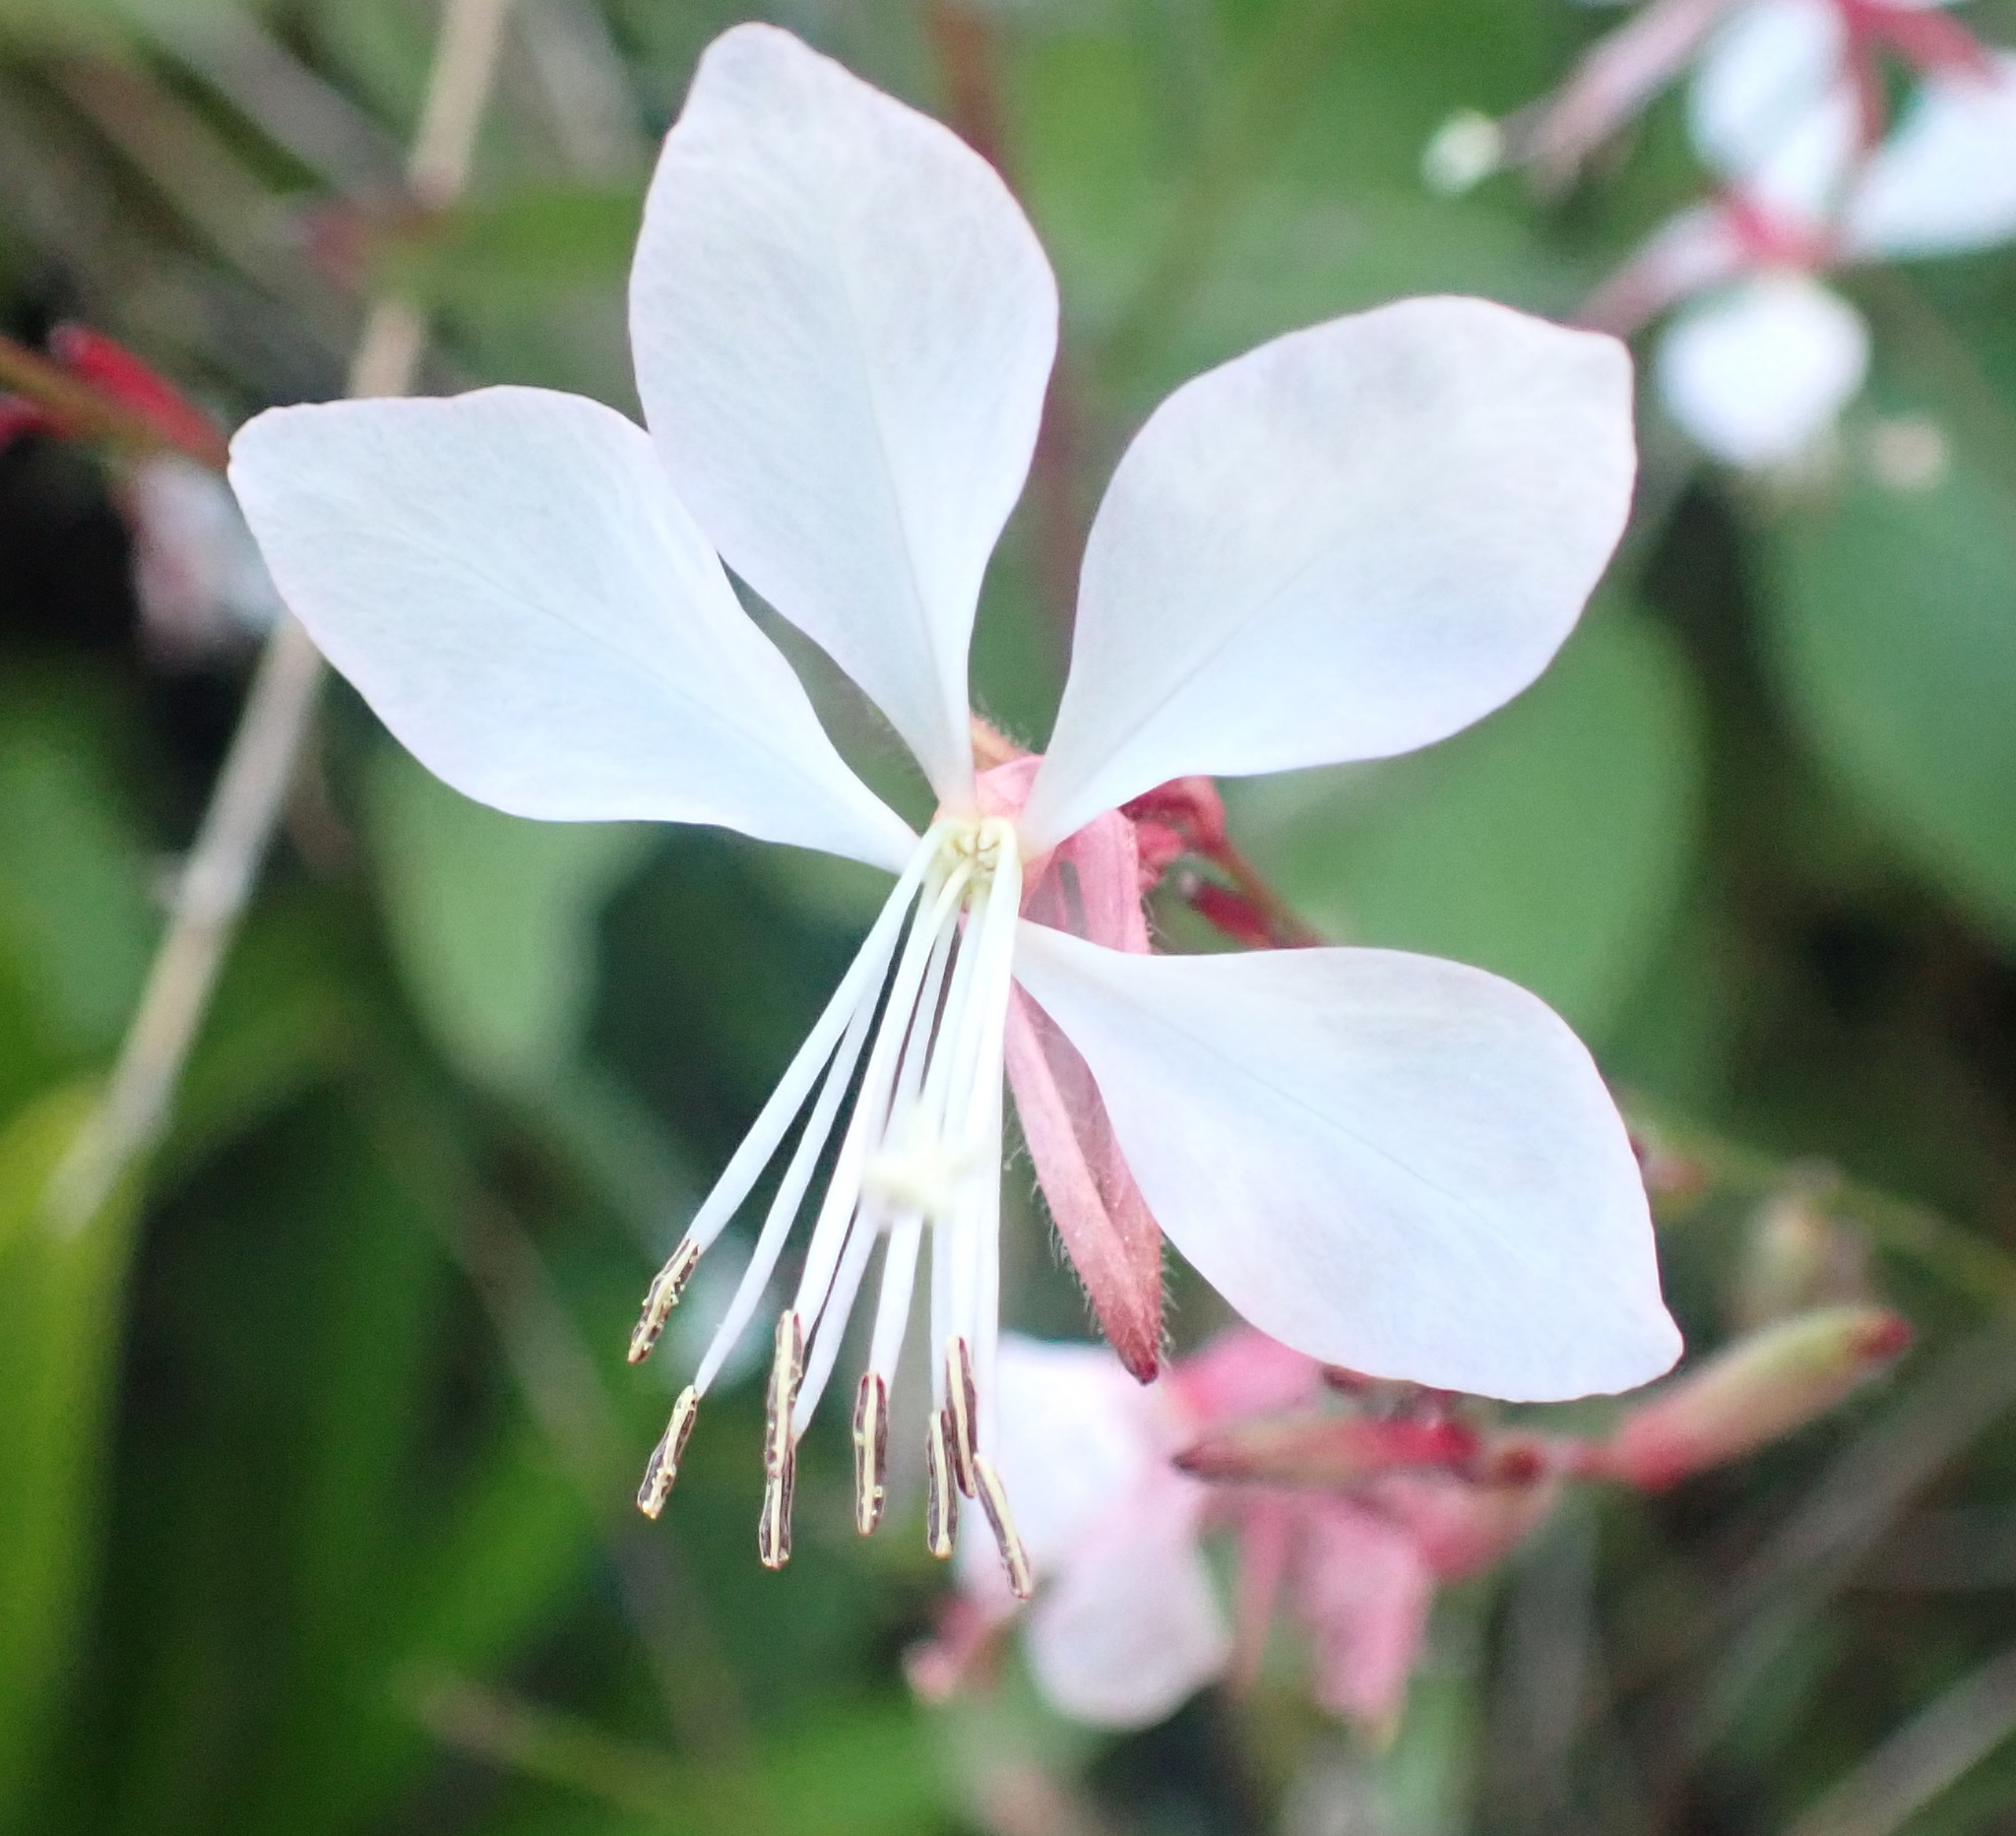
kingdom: Plantae
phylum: Tracheophyta
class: Magnoliopsida
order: Myrtales
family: Onagraceae
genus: Oenothera
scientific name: Oenothera lindheimeri
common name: Lindheimer's beeblossom
